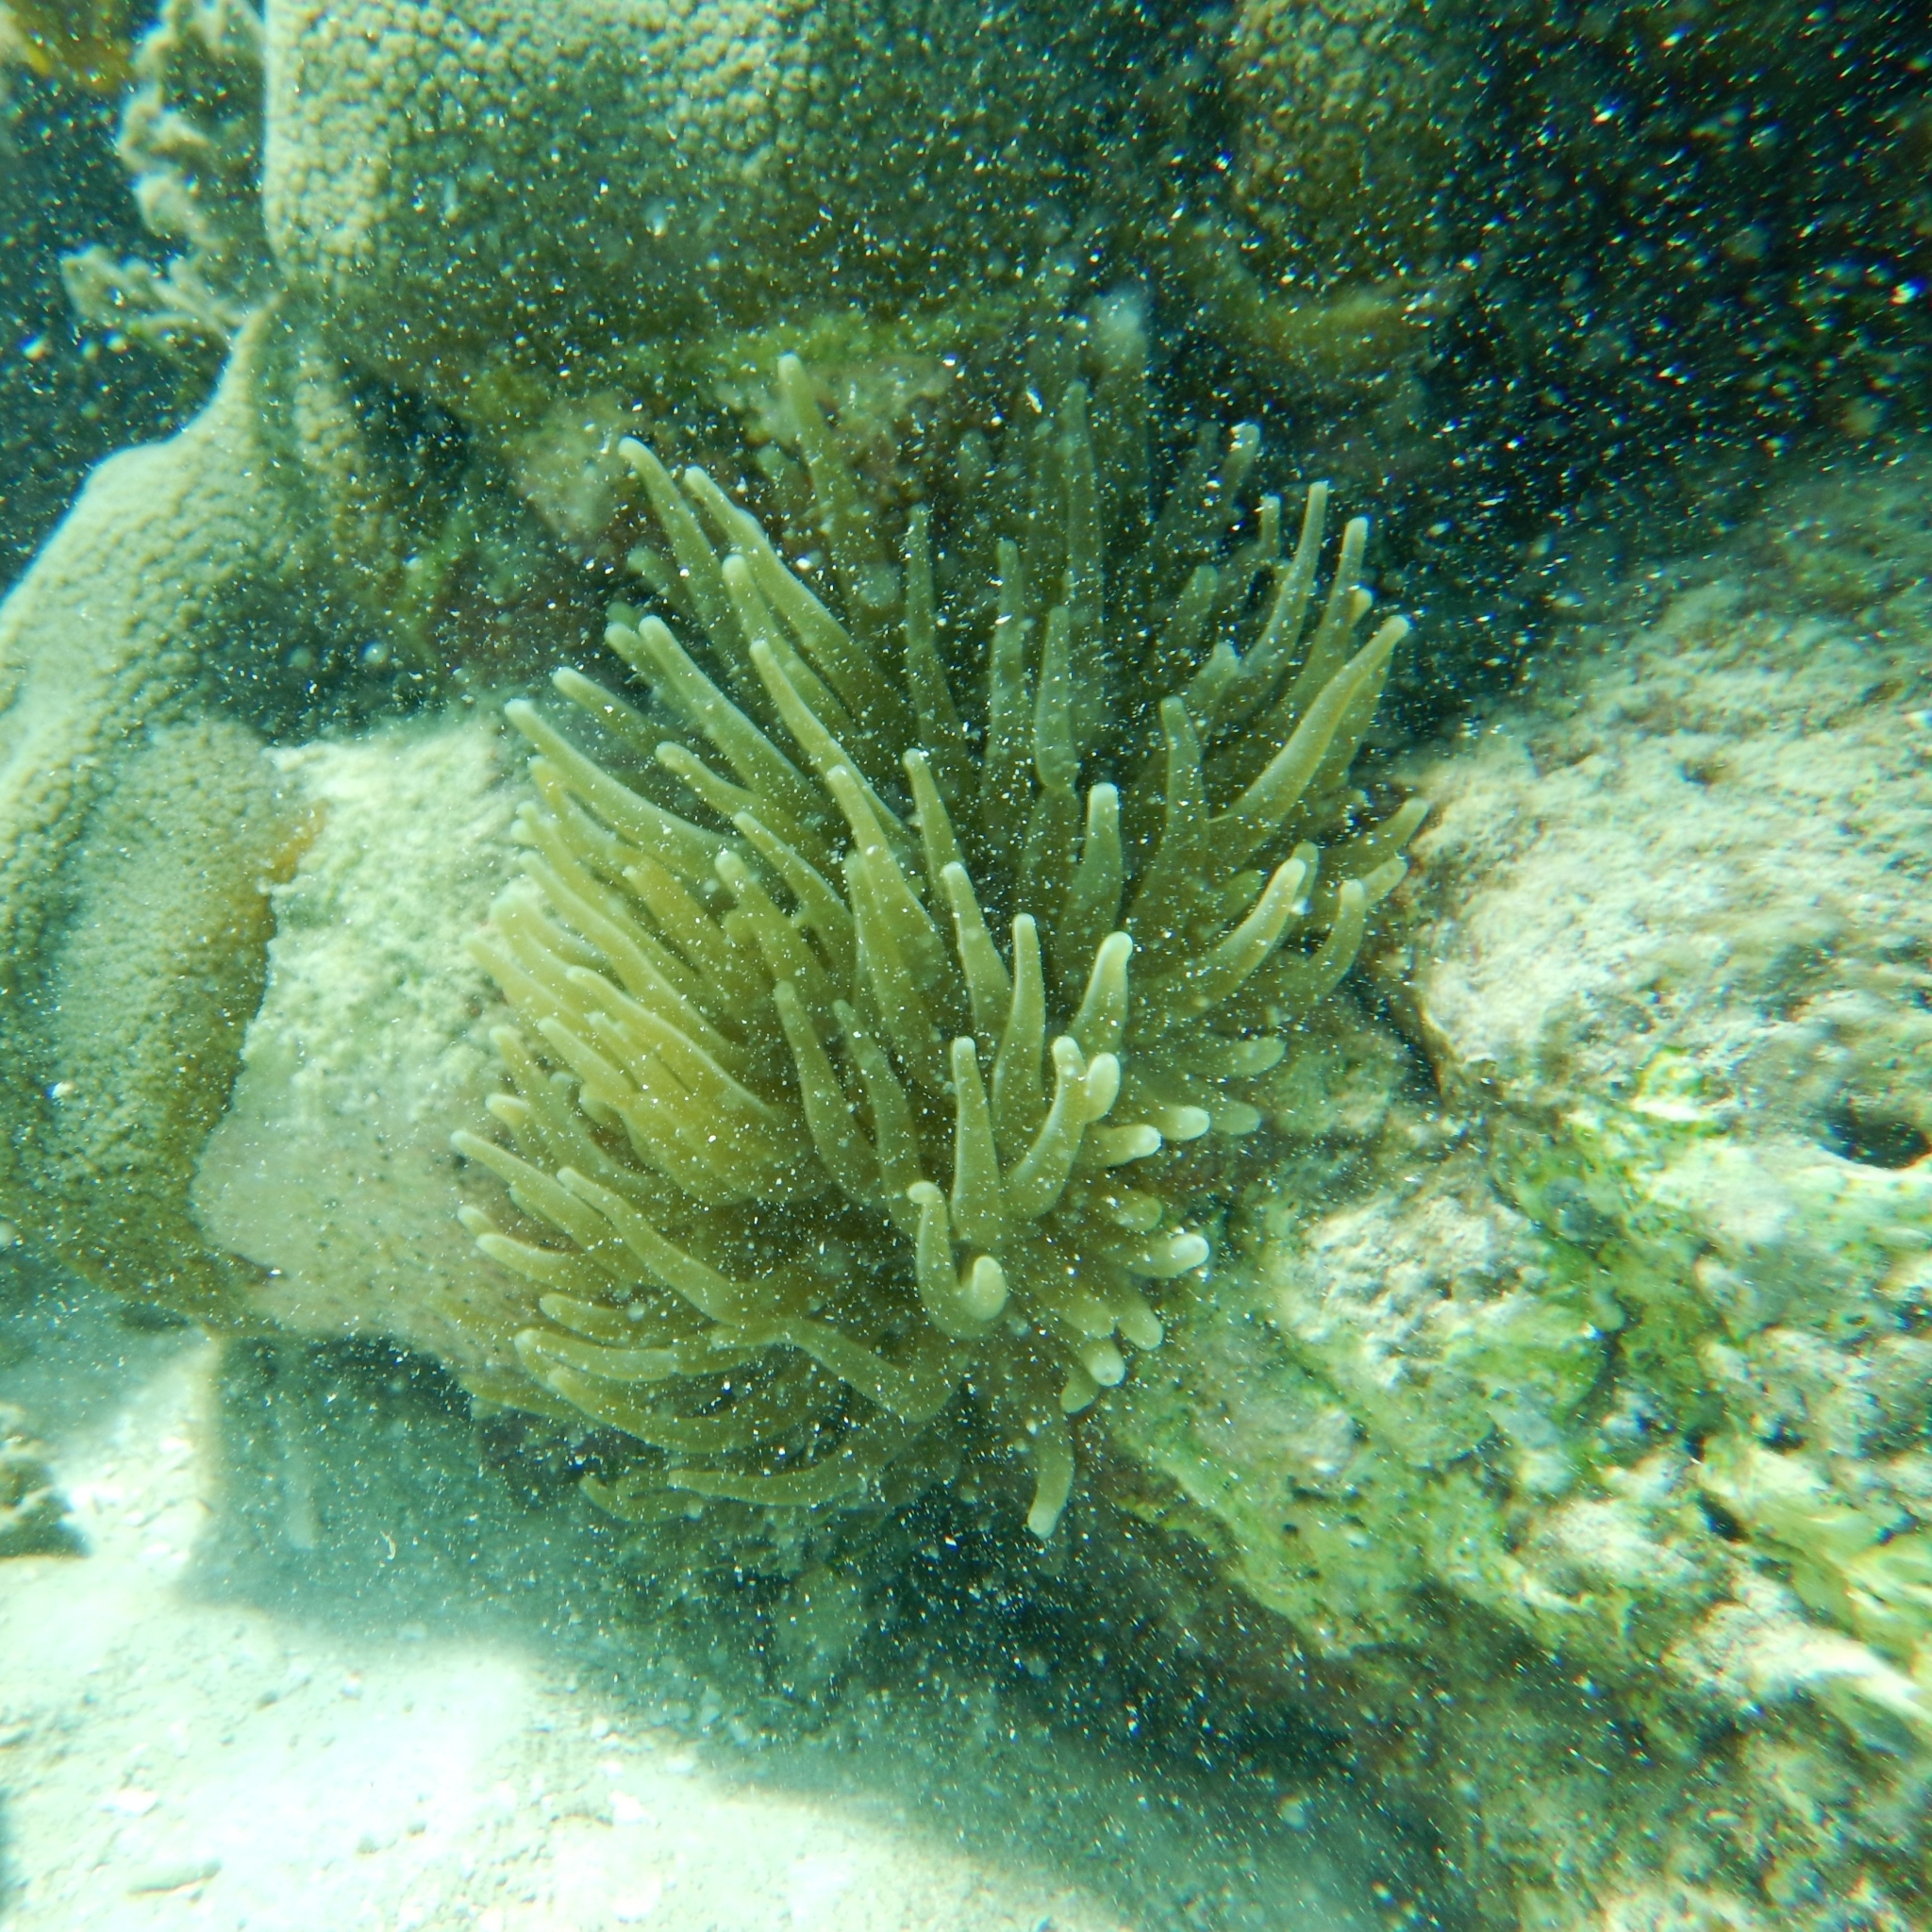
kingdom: Animalia
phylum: Cnidaria
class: Anthozoa
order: Actiniaria
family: Actiniidae
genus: Condylactis
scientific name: Condylactis gigantea
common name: Giant caribbean anemone
